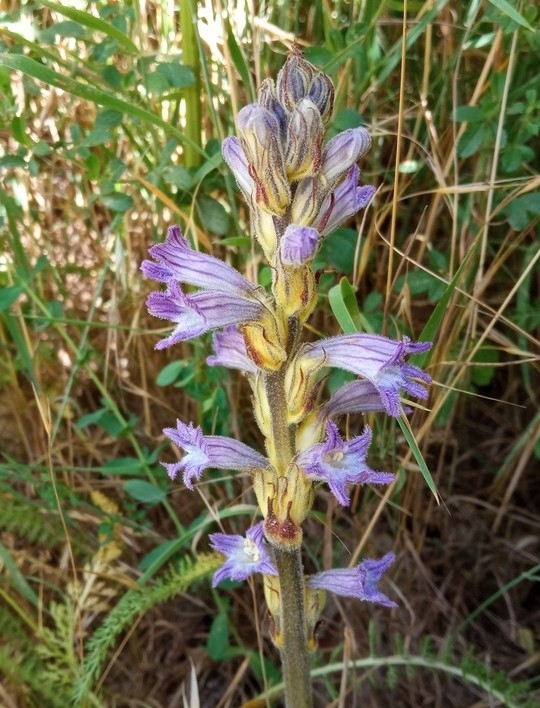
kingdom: Plantae
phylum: Tracheophyta
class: Magnoliopsida
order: Lamiales
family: Orobanchaceae
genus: Phelipanche
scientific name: Phelipanche purpurea
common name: Purple broomrape
